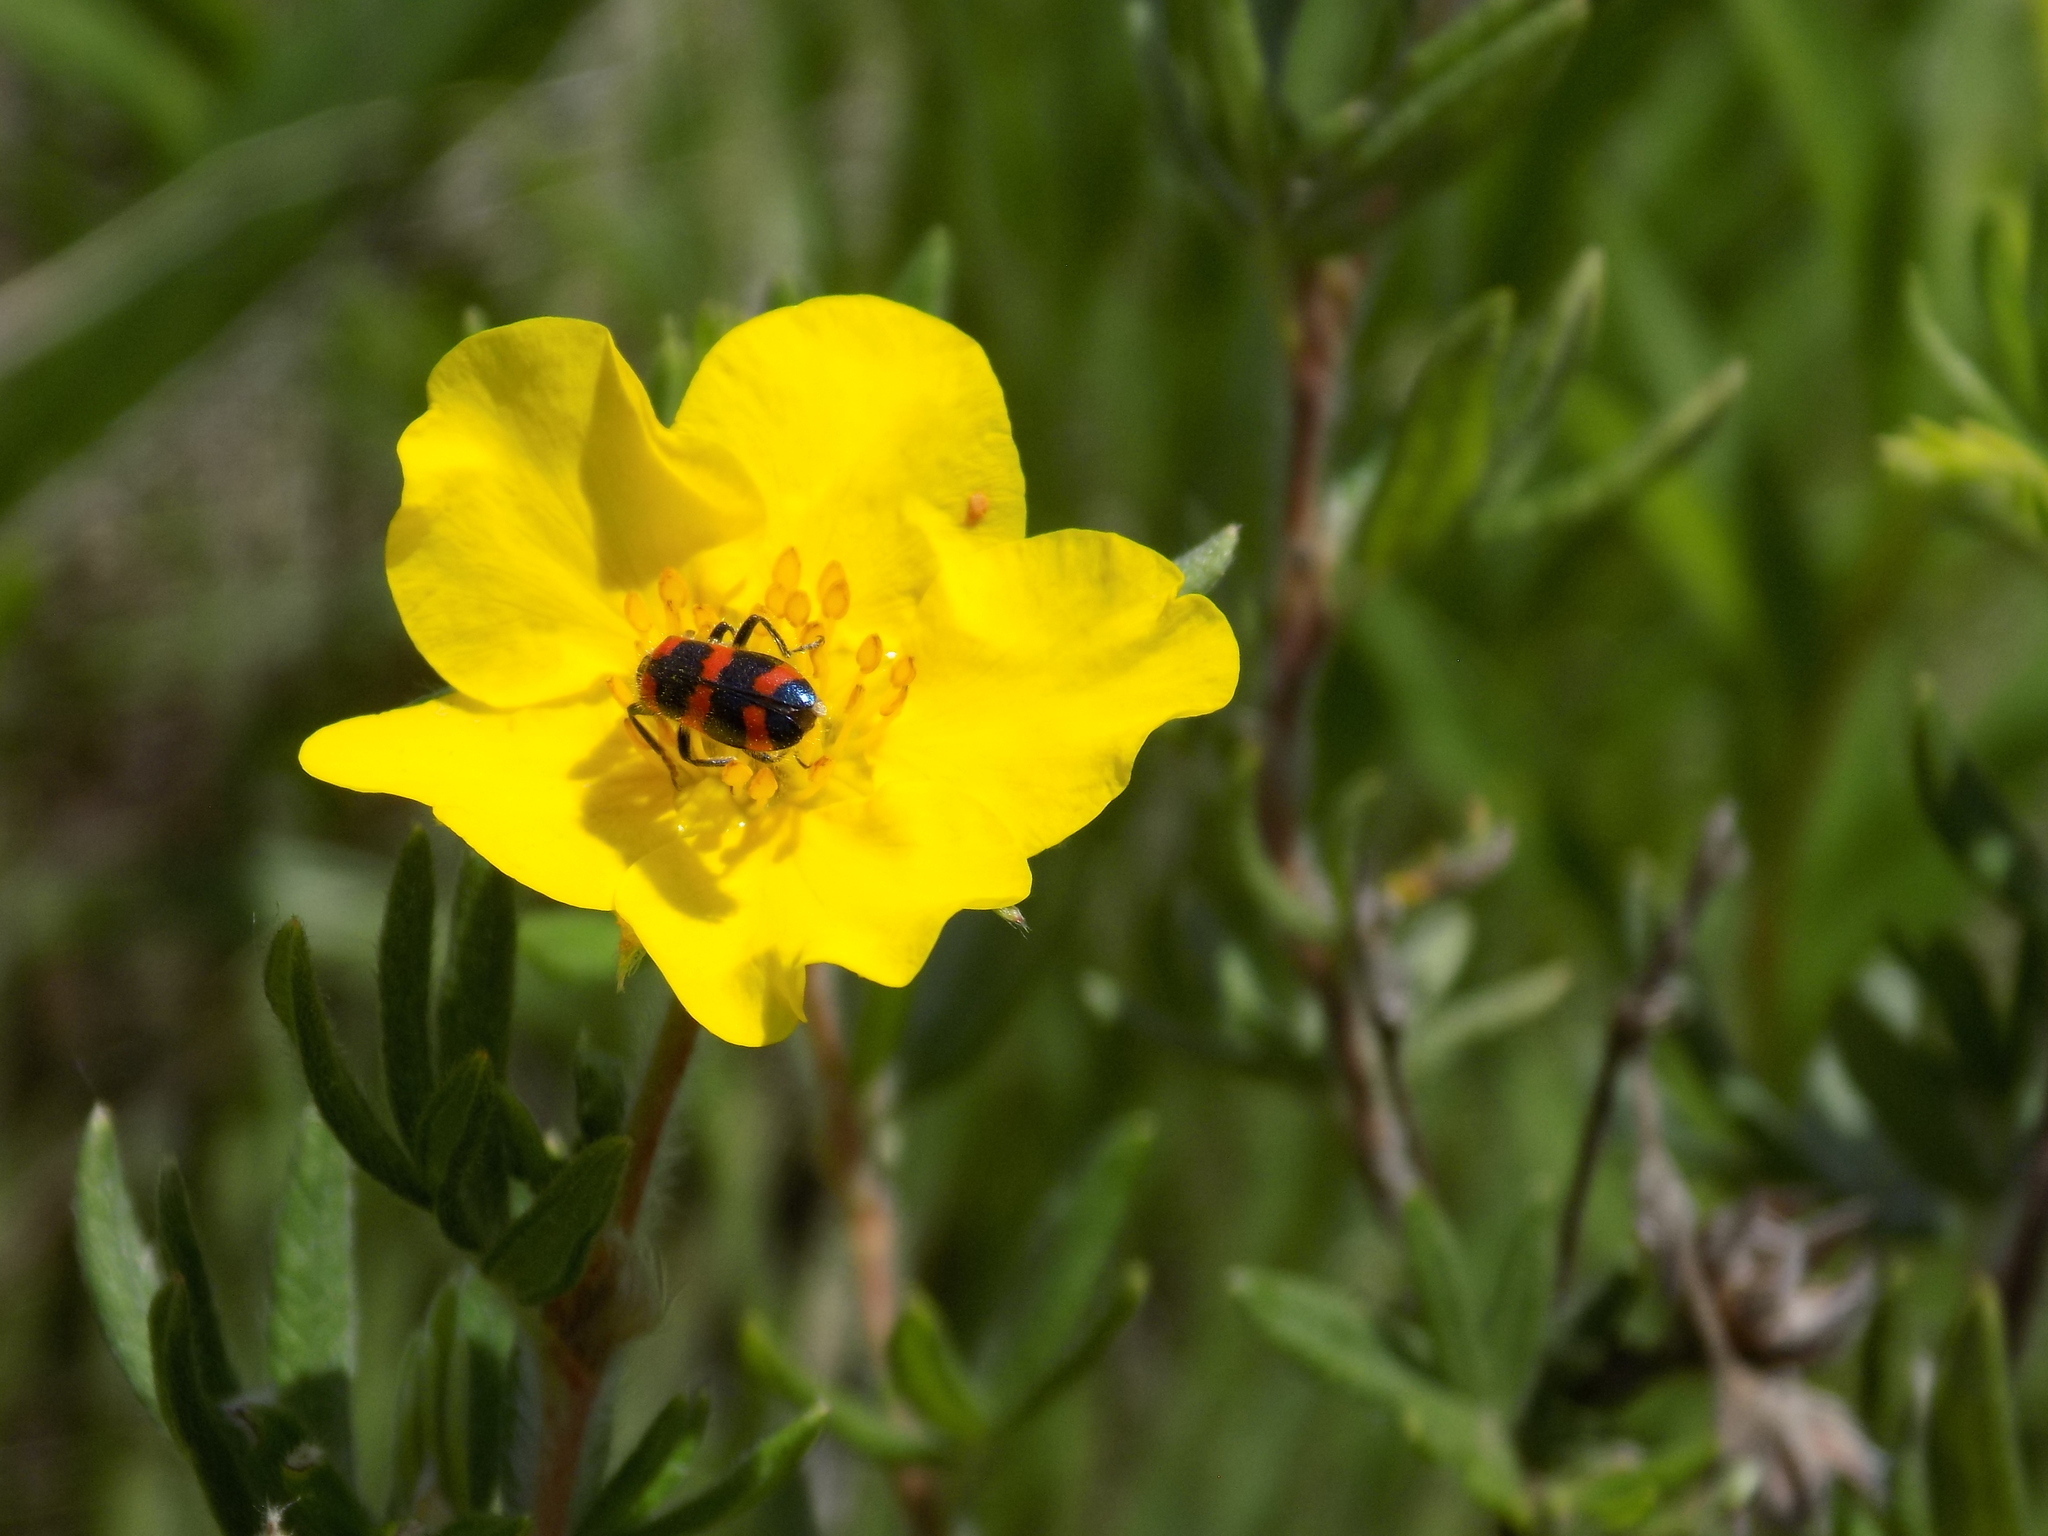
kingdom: Animalia
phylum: Arthropoda
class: Insecta
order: Coleoptera
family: Cleridae
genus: Trichodes
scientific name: Trichodes nutalli
